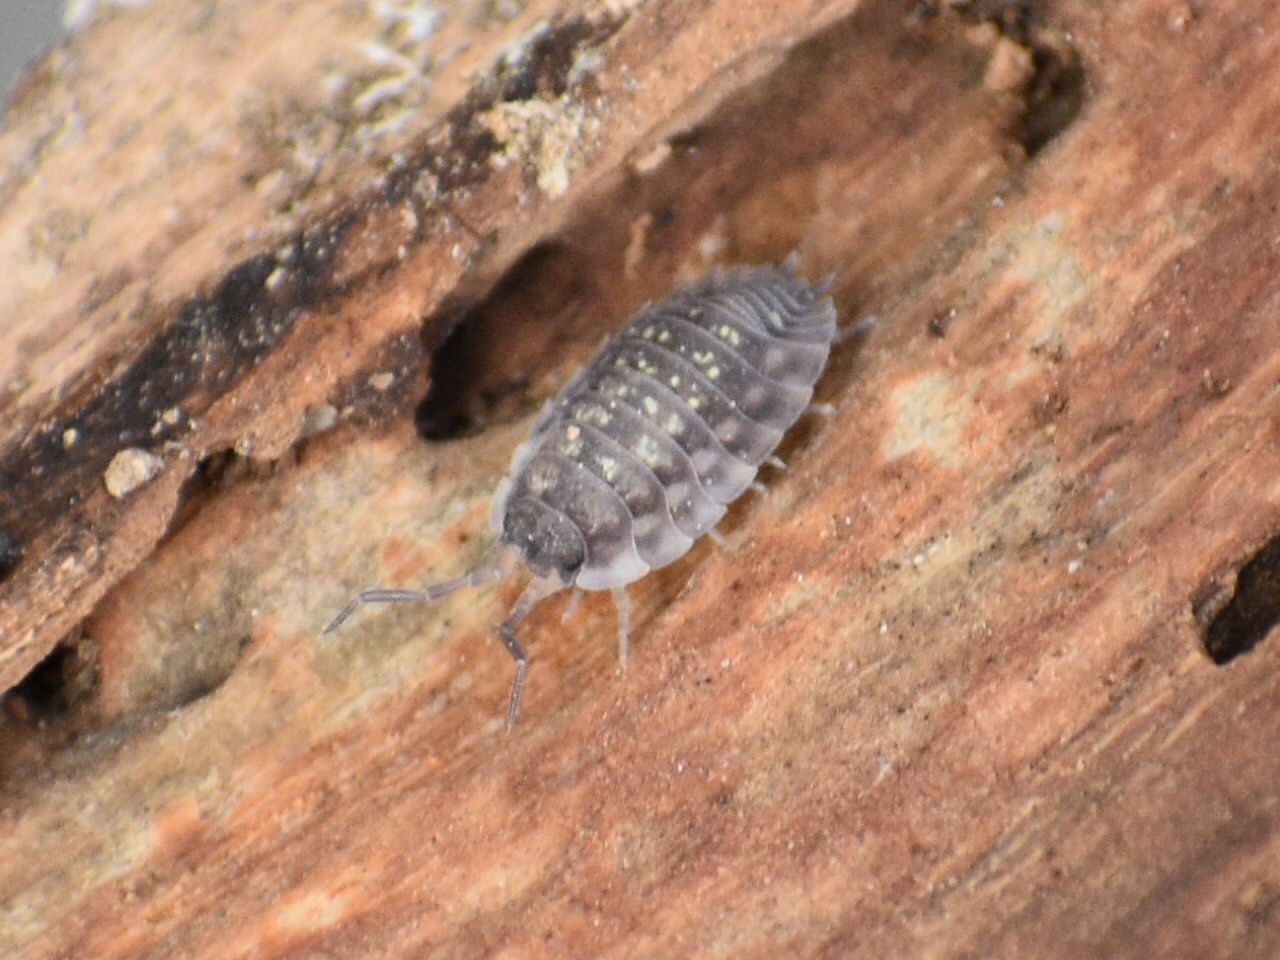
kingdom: Animalia
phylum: Arthropoda
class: Malacostraca
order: Isopoda
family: Oniscidae
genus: Oniscus
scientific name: Oniscus asellus
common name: Common shiny woodlouse
